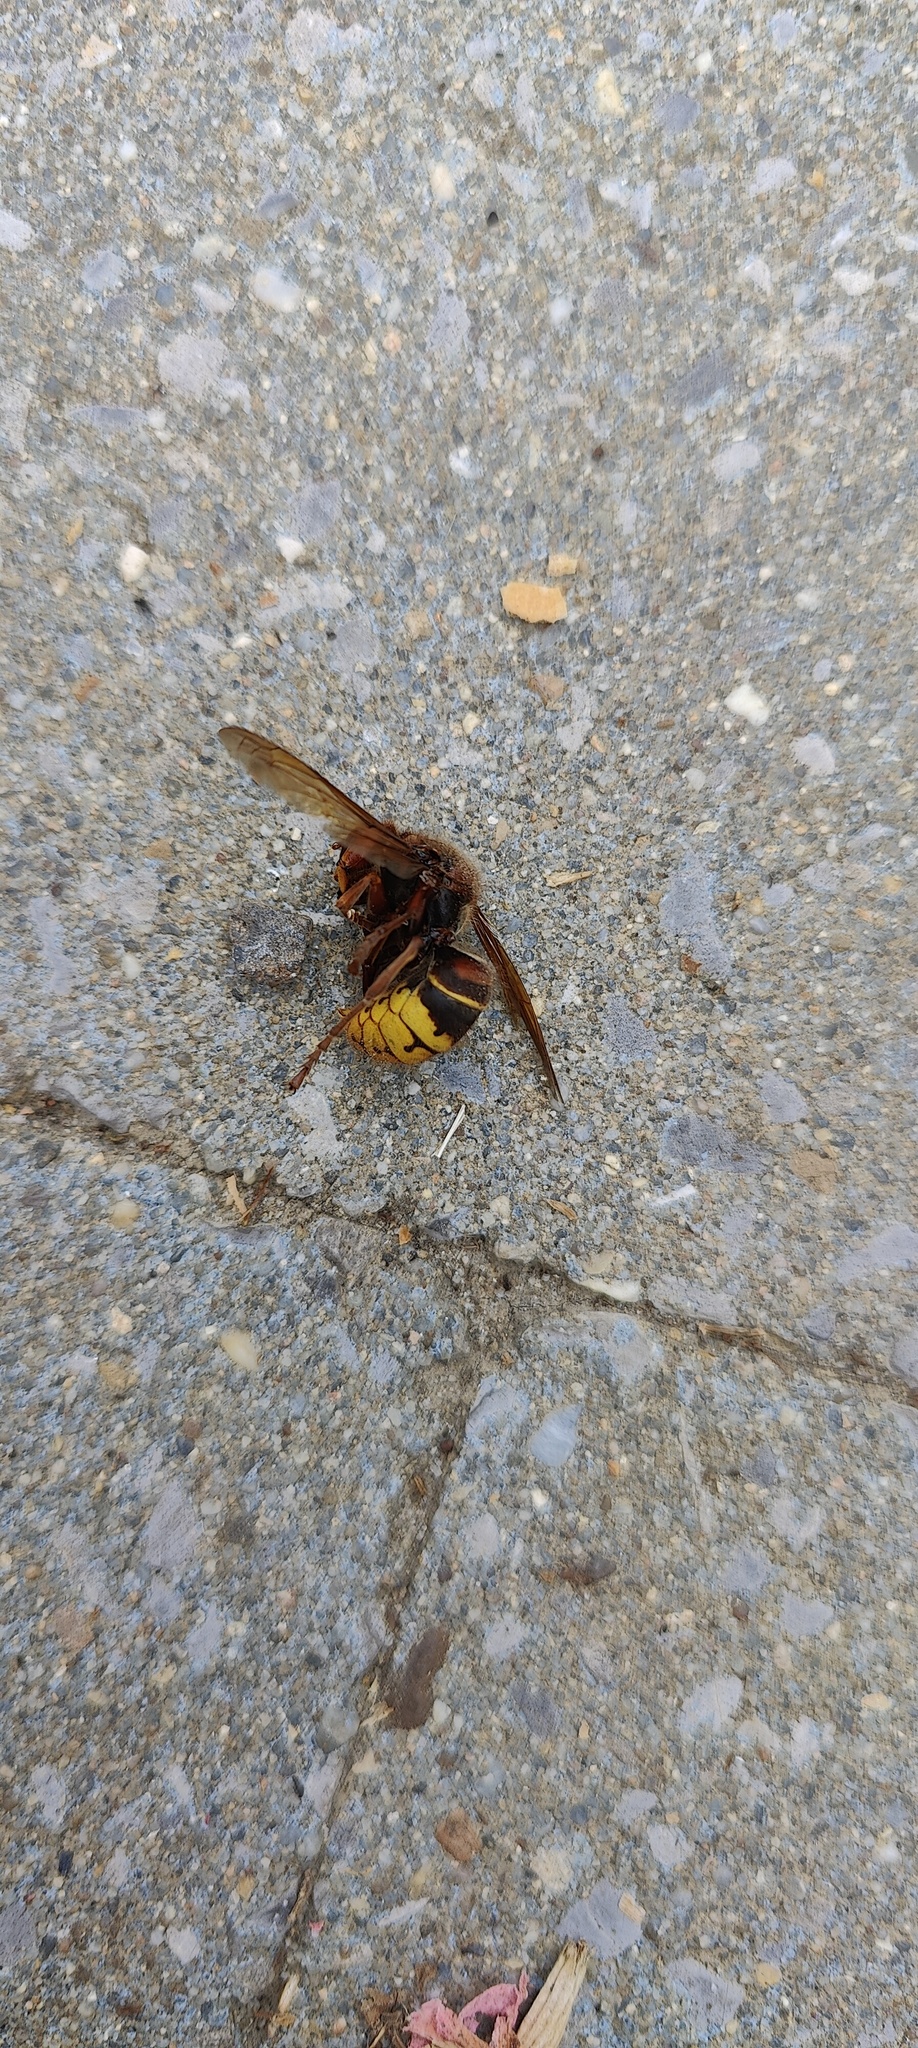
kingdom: Animalia
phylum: Arthropoda
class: Insecta
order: Hymenoptera
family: Vespidae
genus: Vespa
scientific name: Vespa crabro
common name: Hornet
